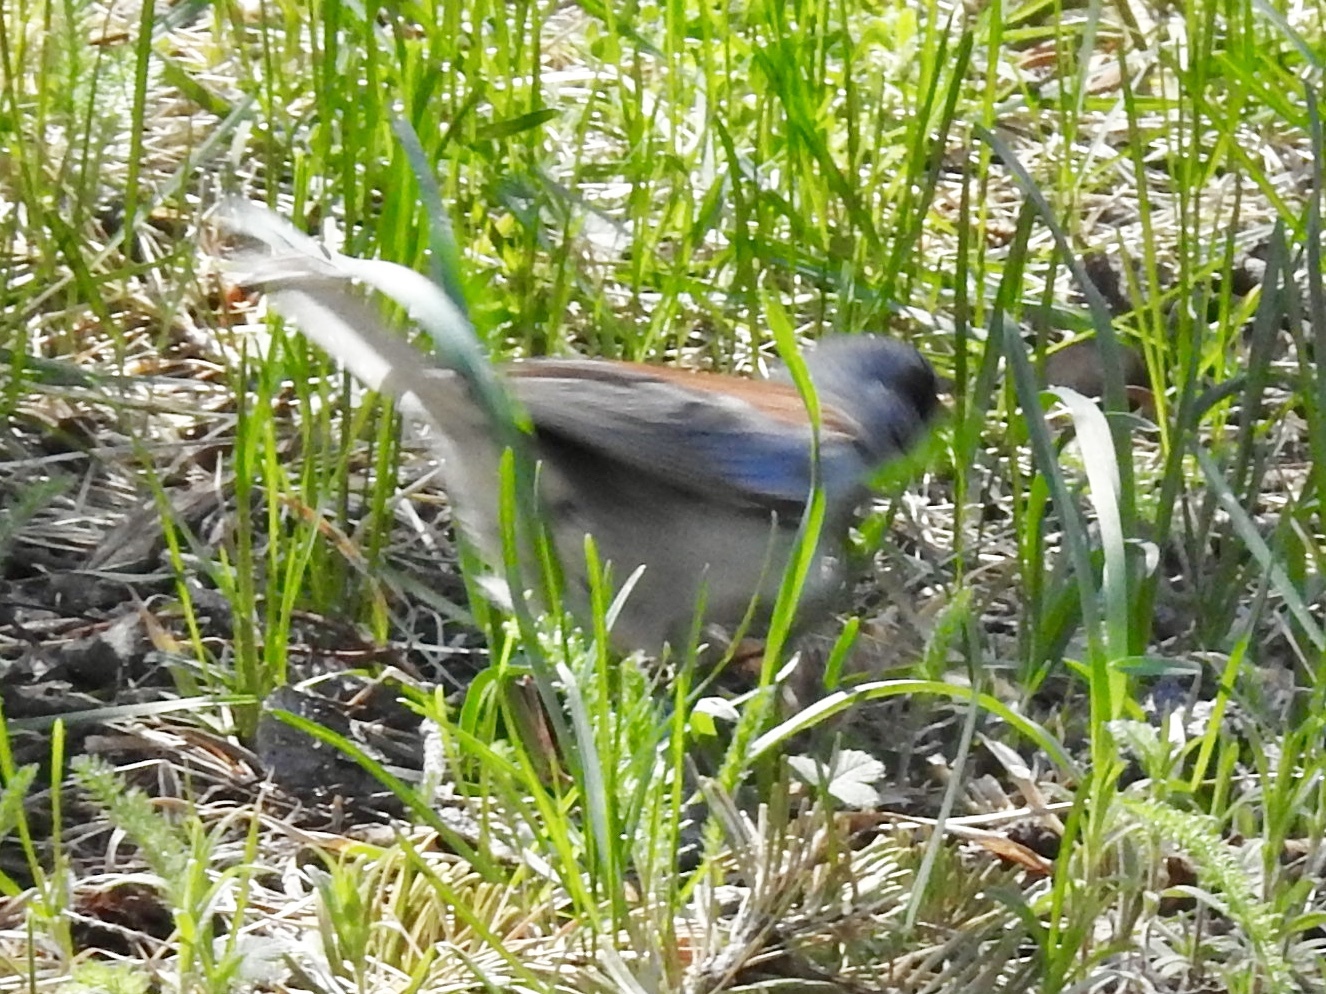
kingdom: Animalia
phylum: Chordata
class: Aves
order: Passeriformes
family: Passerellidae
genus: Junco
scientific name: Junco hyemalis
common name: Dark-eyed junco
